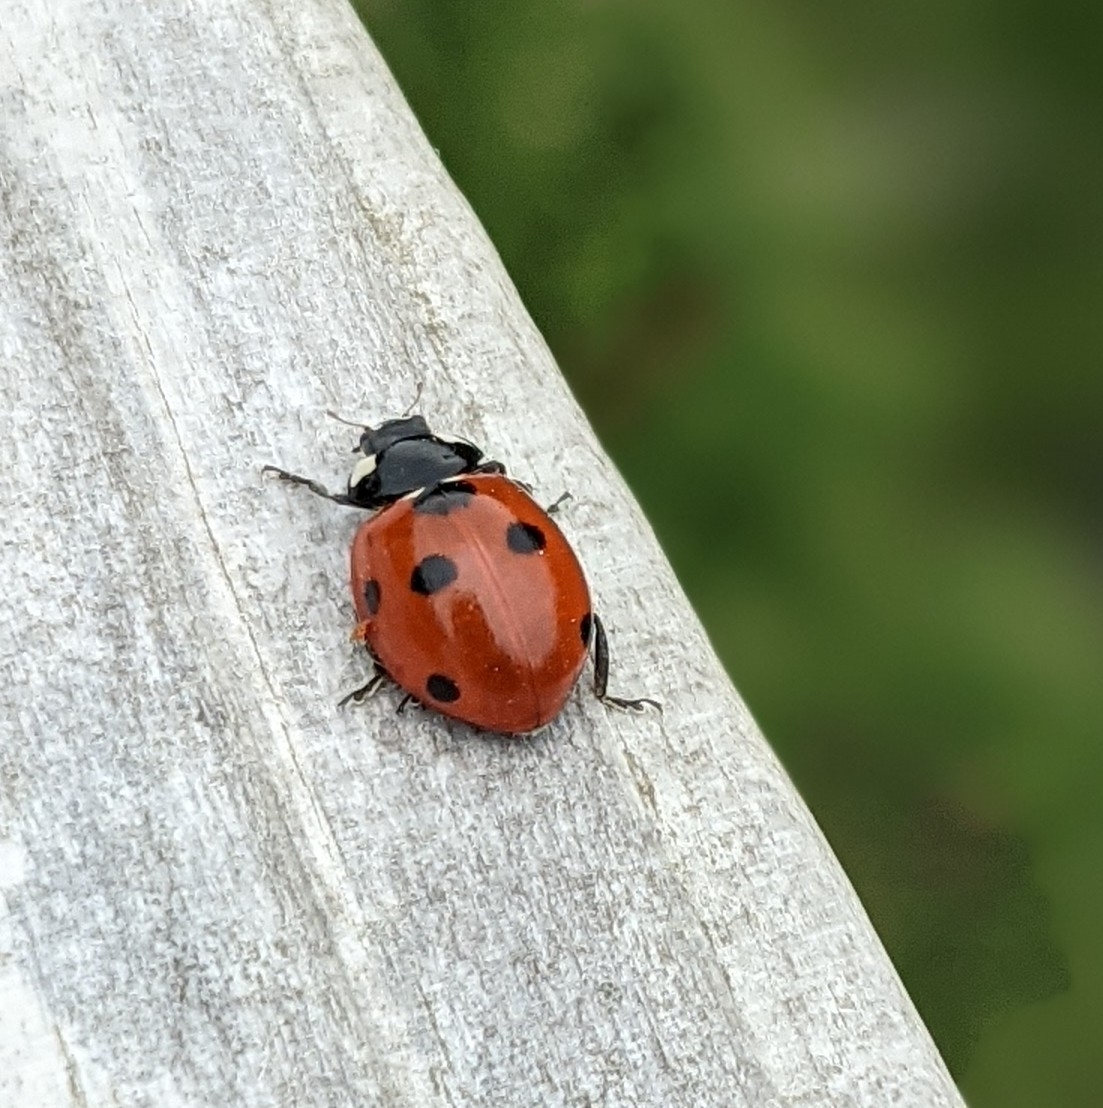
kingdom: Animalia
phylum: Arthropoda
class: Insecta
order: Coleoptera
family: Coccinellidae
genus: Coccinella
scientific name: Coccinella septempunctata
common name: Sevenspotted lady beetle
